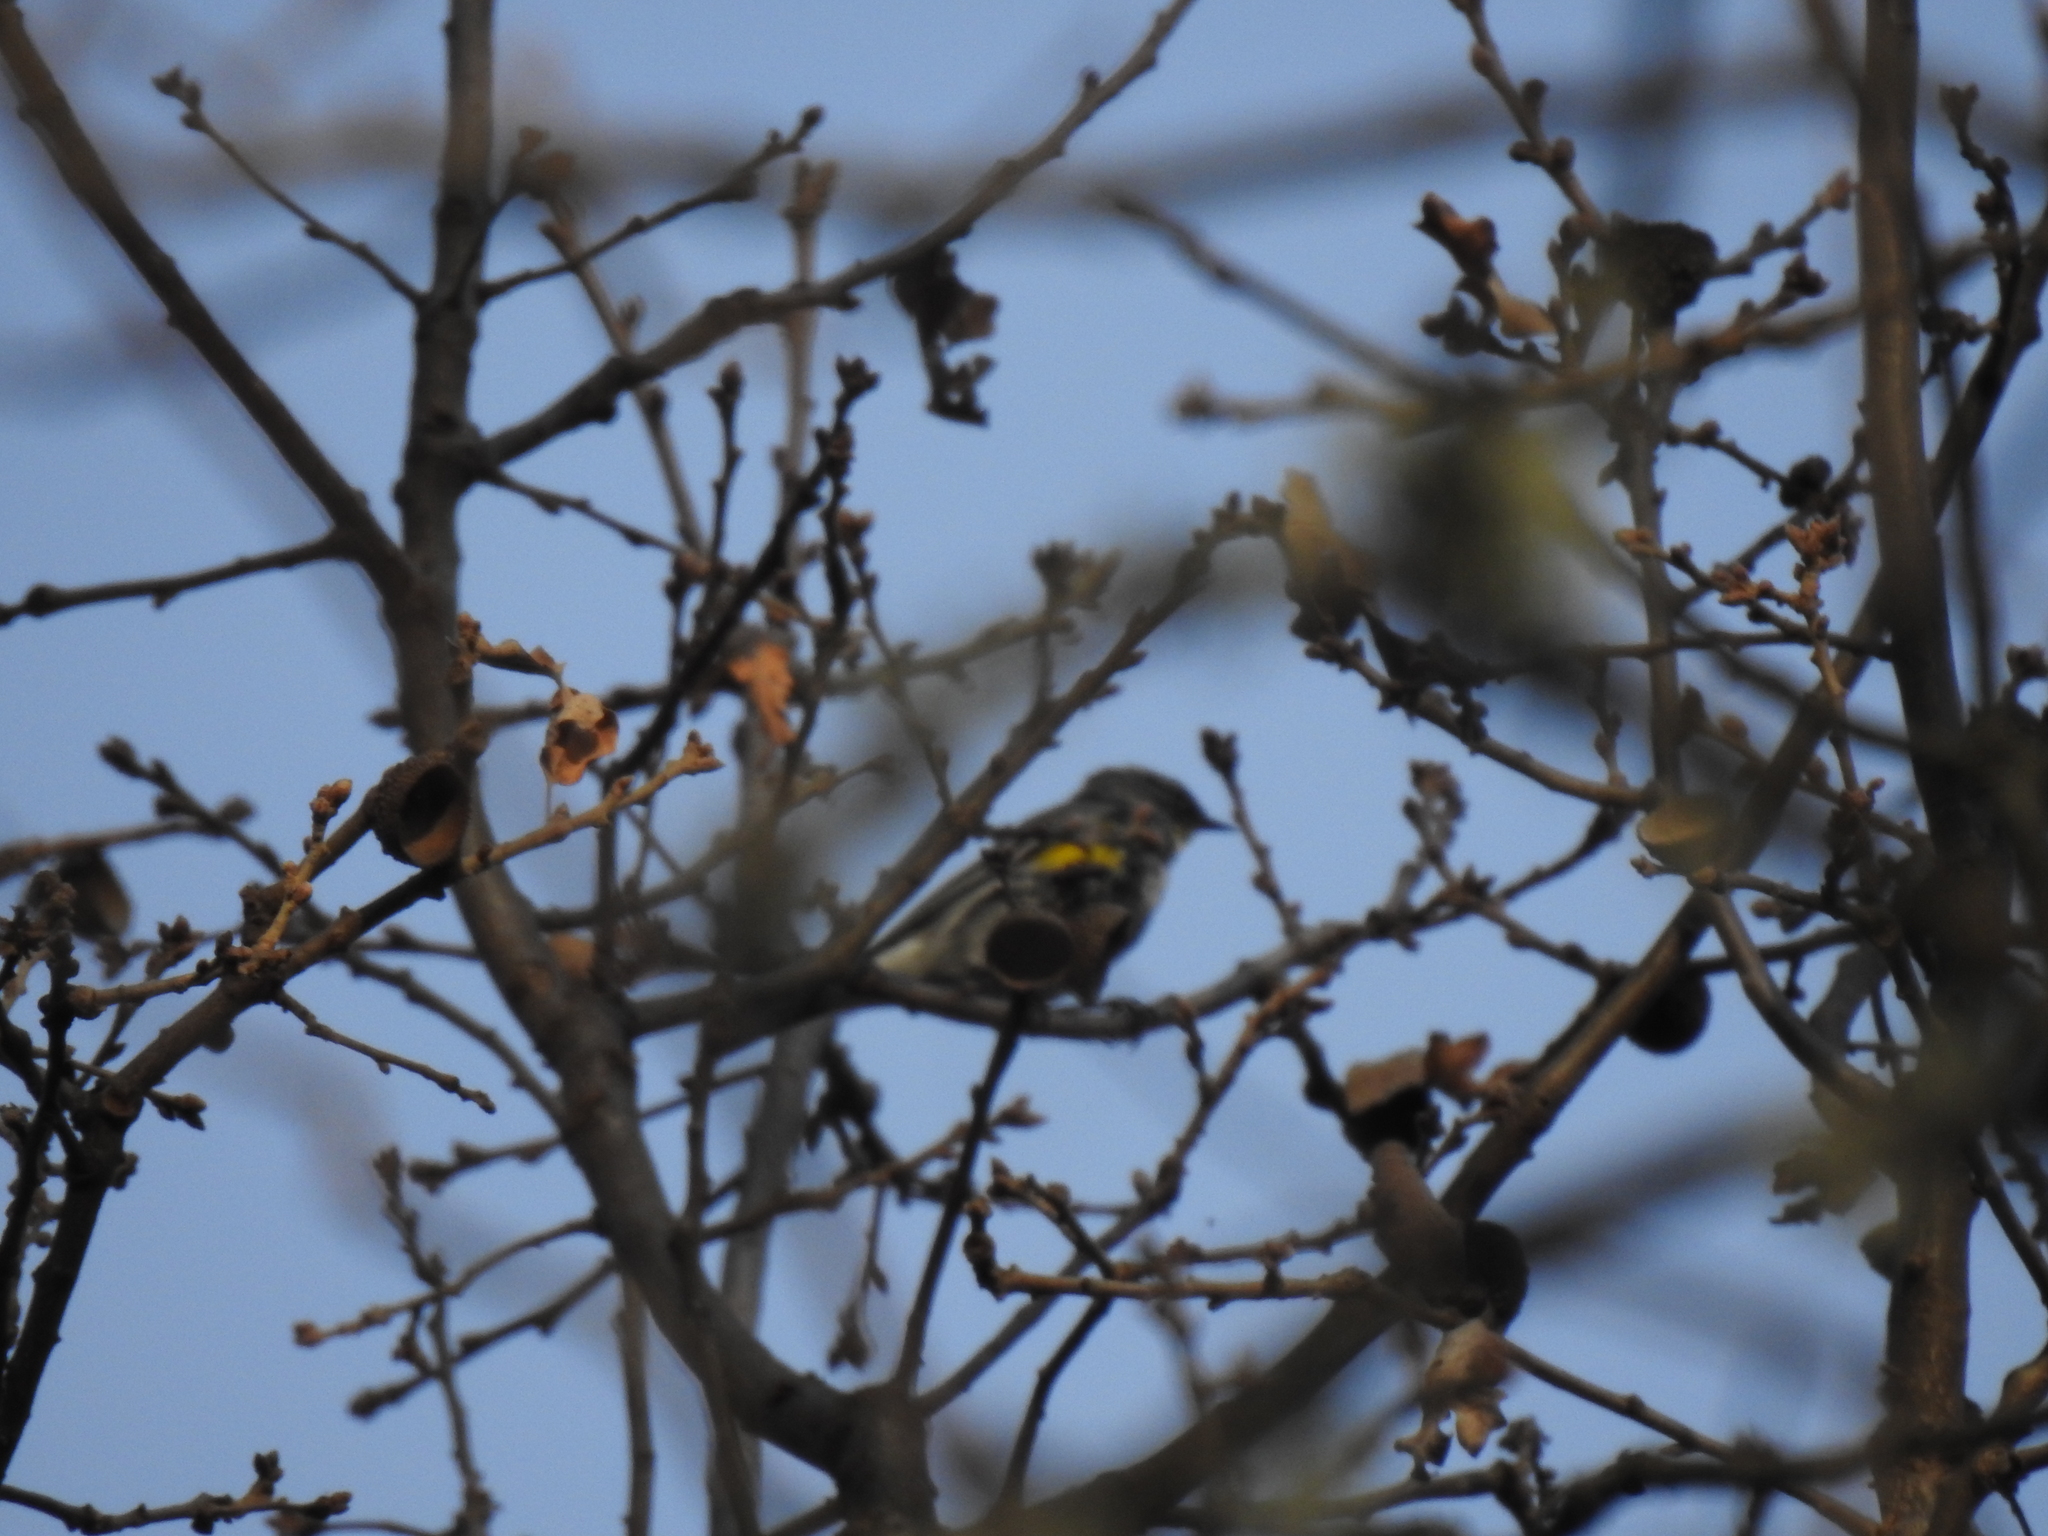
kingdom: Animalia
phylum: Chordata
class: Aves
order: Passeriformes
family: Parulidae
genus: Setophaga
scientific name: Setophaga coronata
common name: Myrtle warbler
